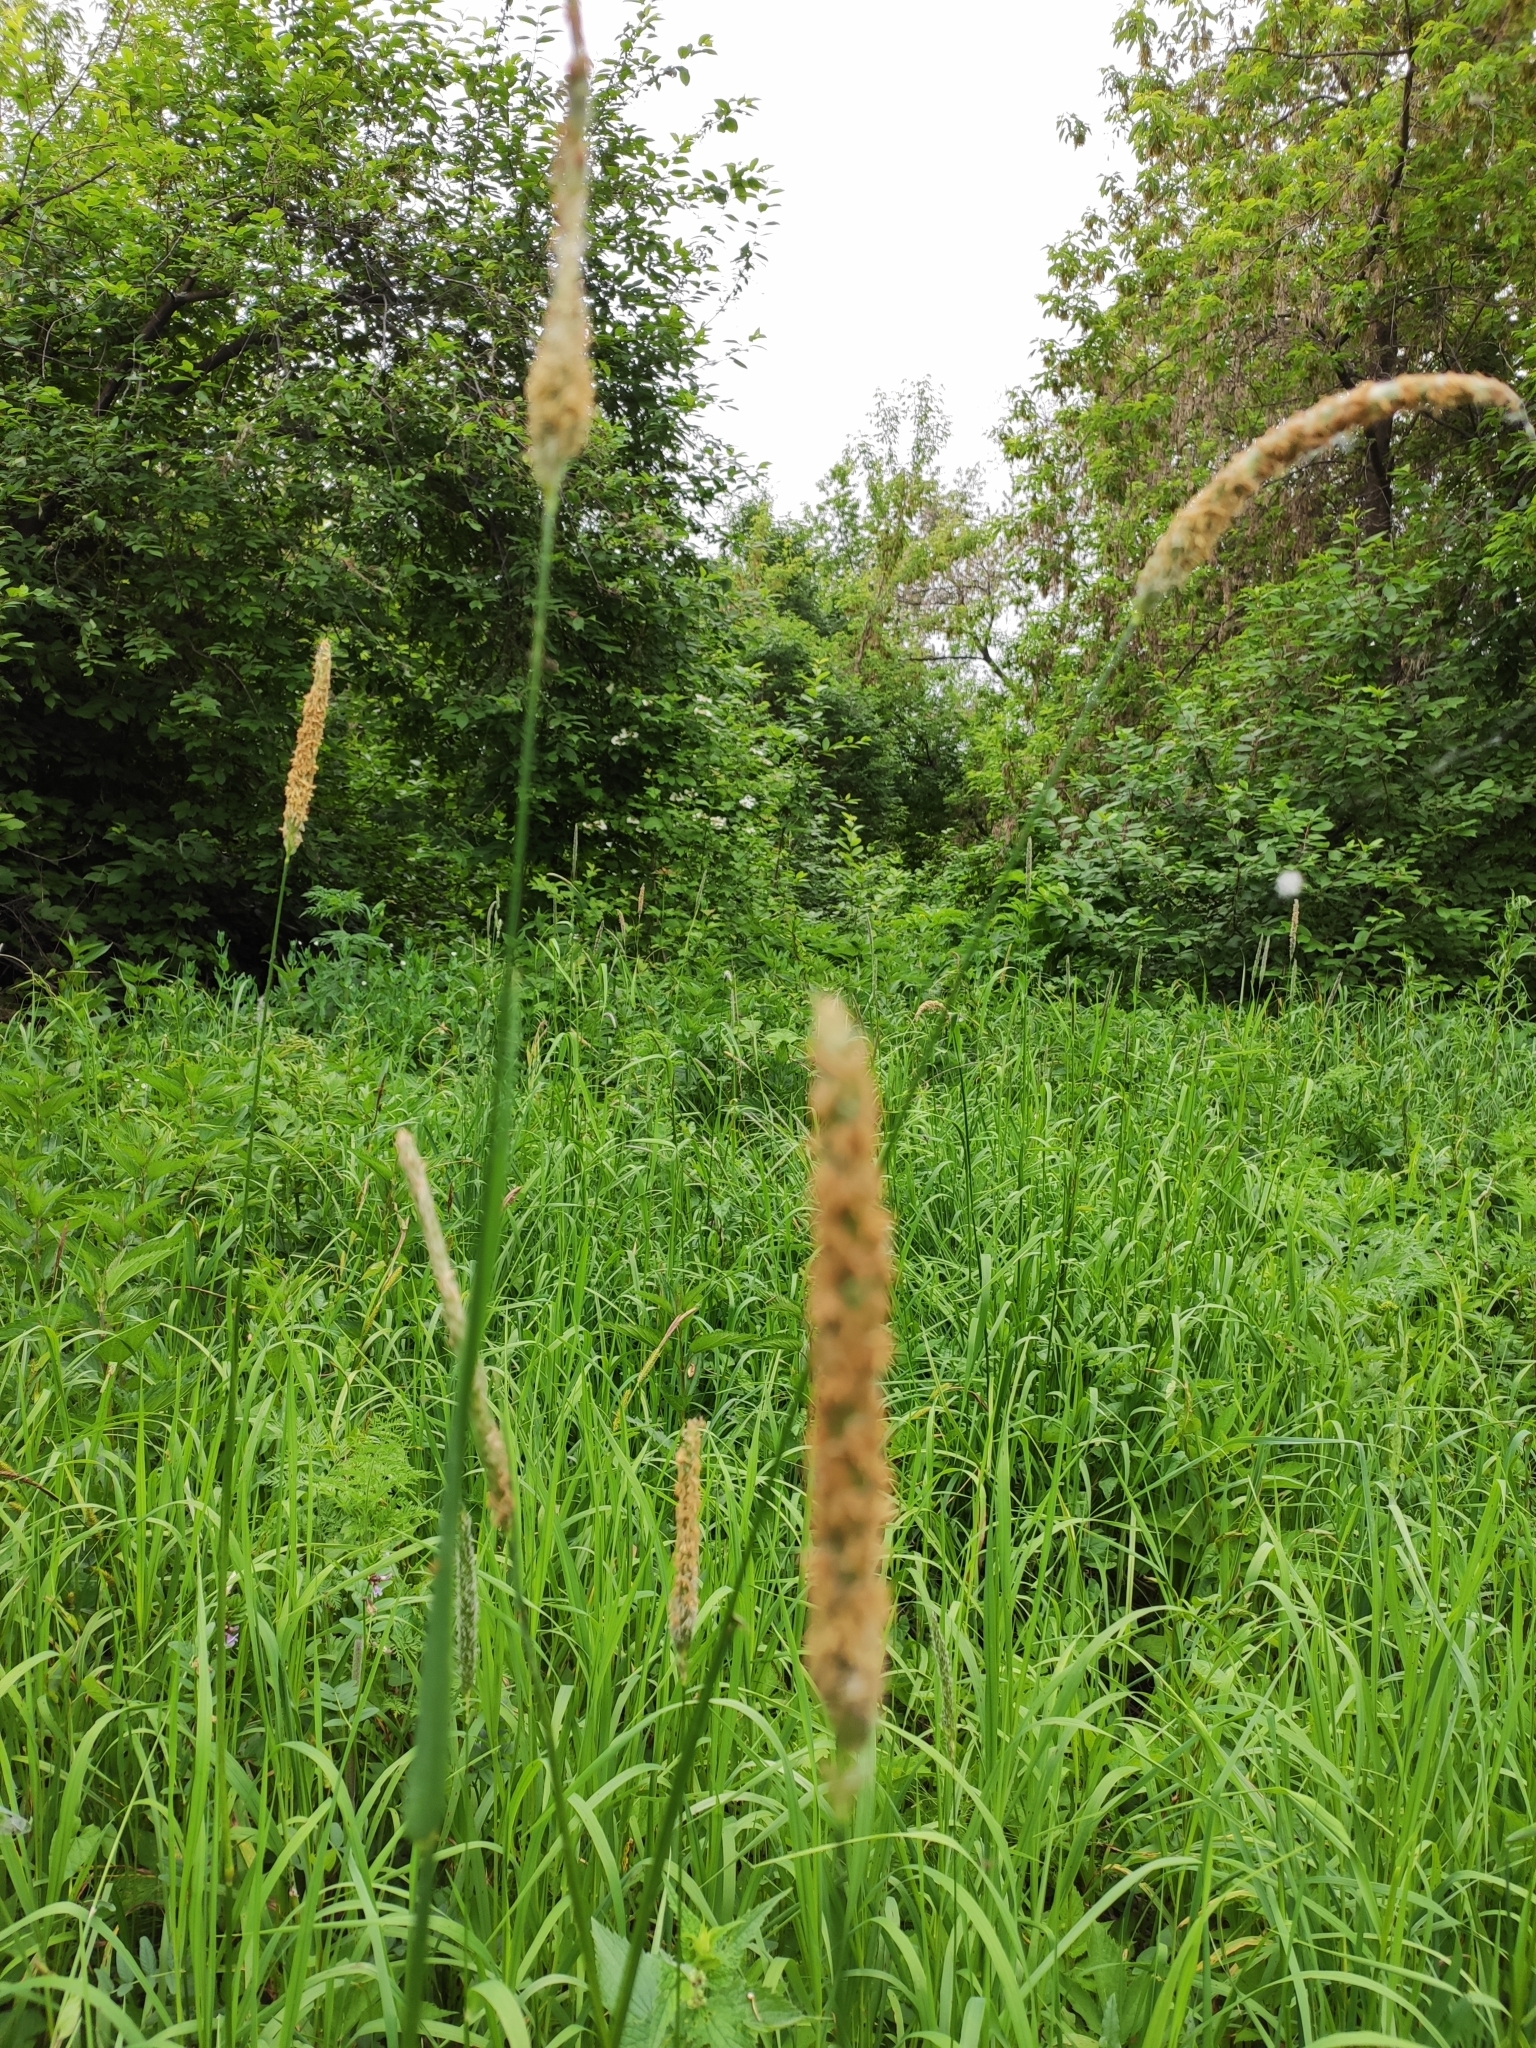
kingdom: Plantae
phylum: Tracheophyta
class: Liliopsida
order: Poales
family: Poaceae
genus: Alopecurus
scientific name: Alopecurus pratensis
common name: Meadow foxtail
